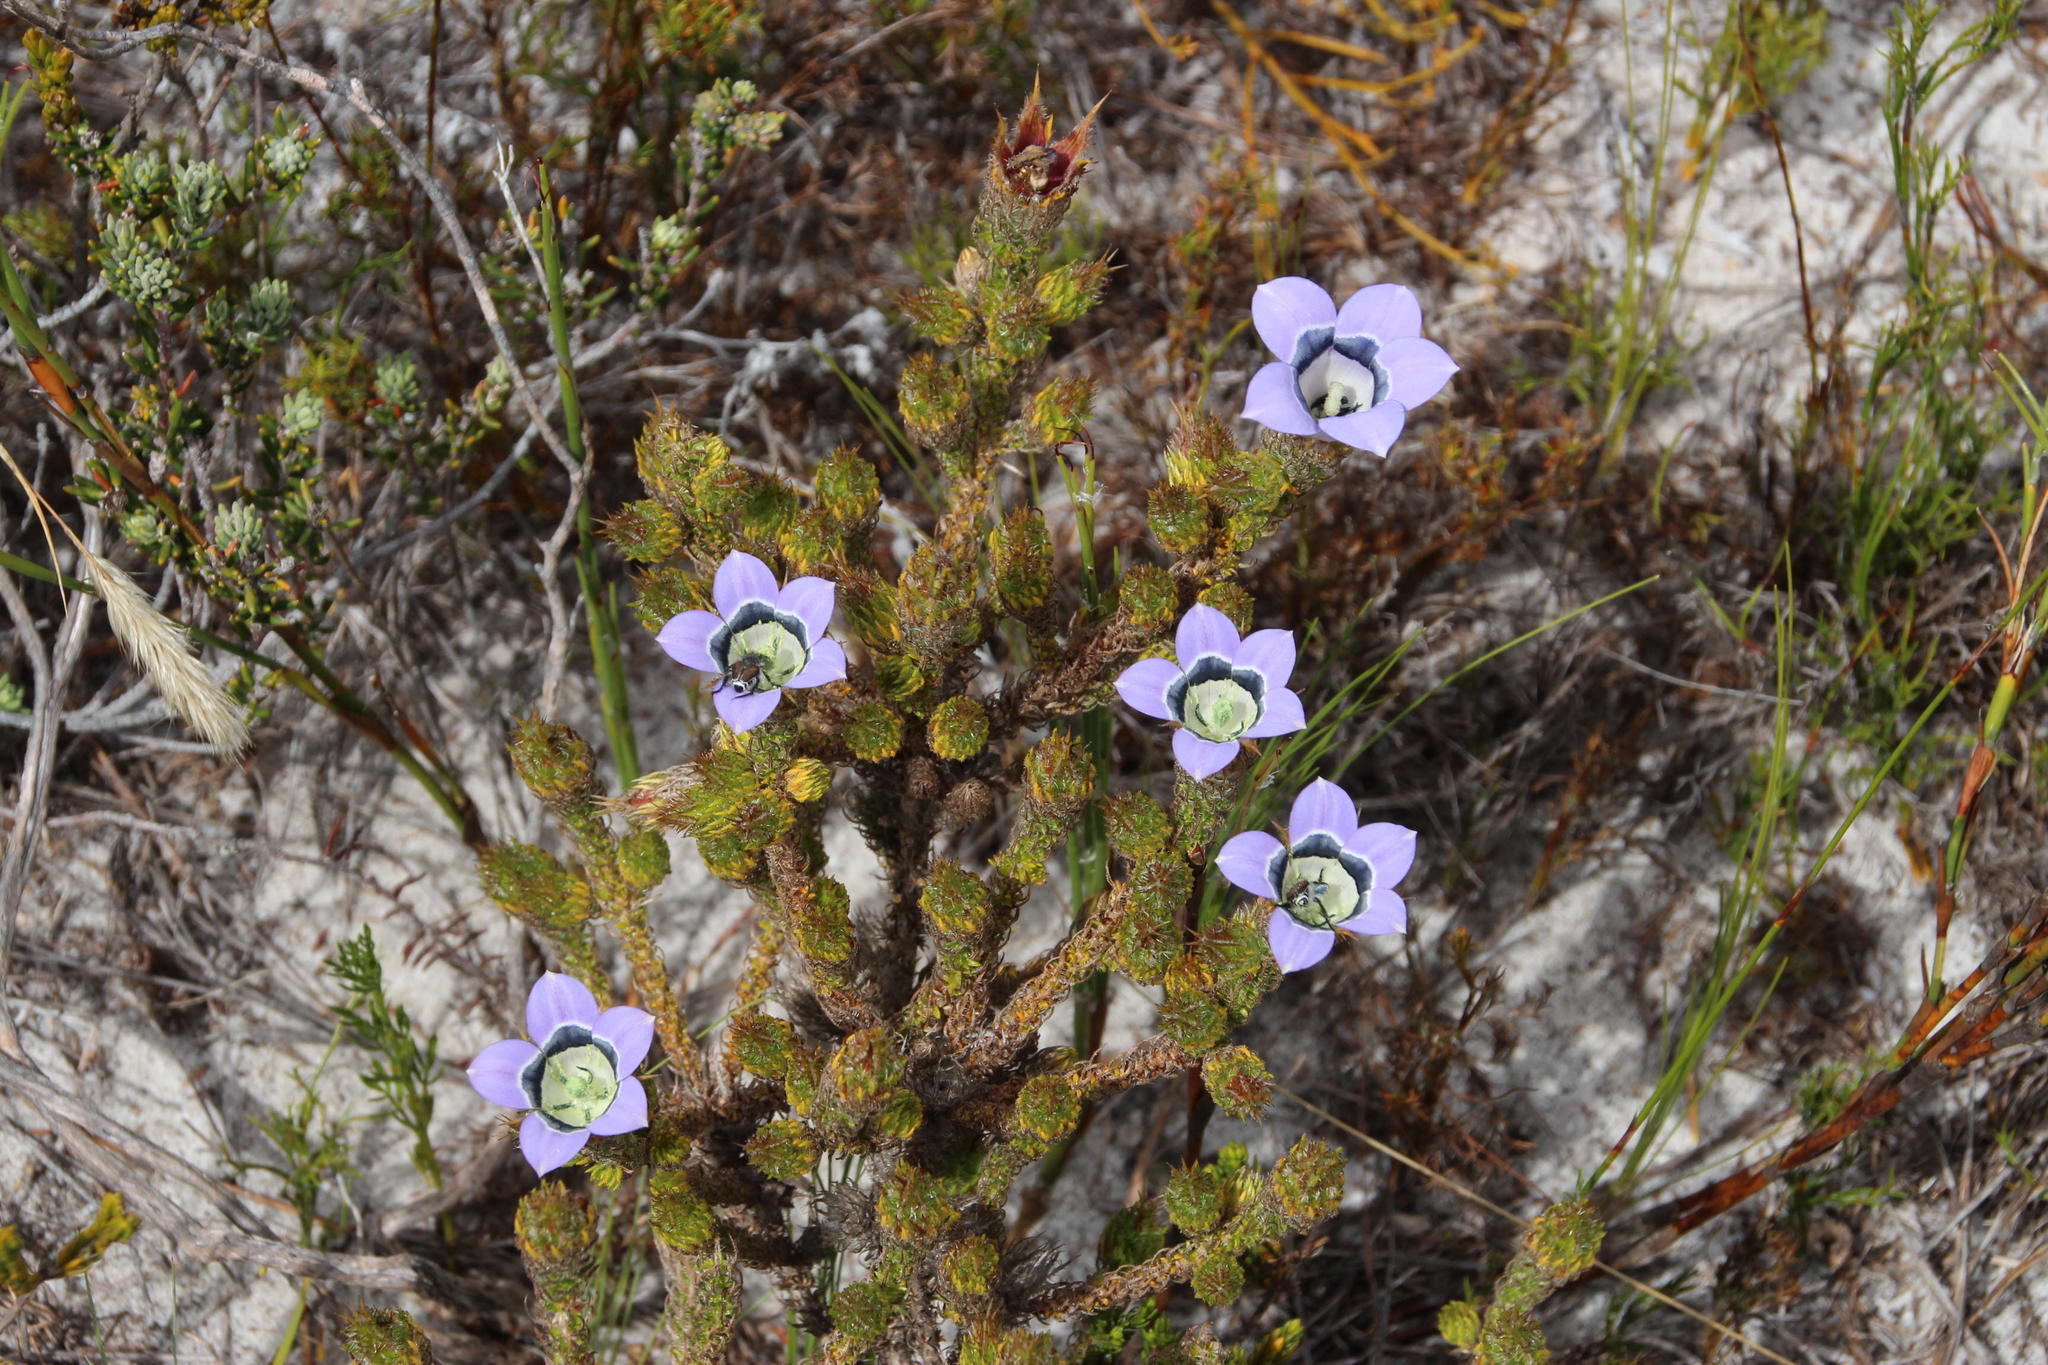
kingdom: Plantae
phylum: Tracheophyta
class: Magnoliopsida
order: Asterales
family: Campanulaceae
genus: Roella
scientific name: Roella ciliata
